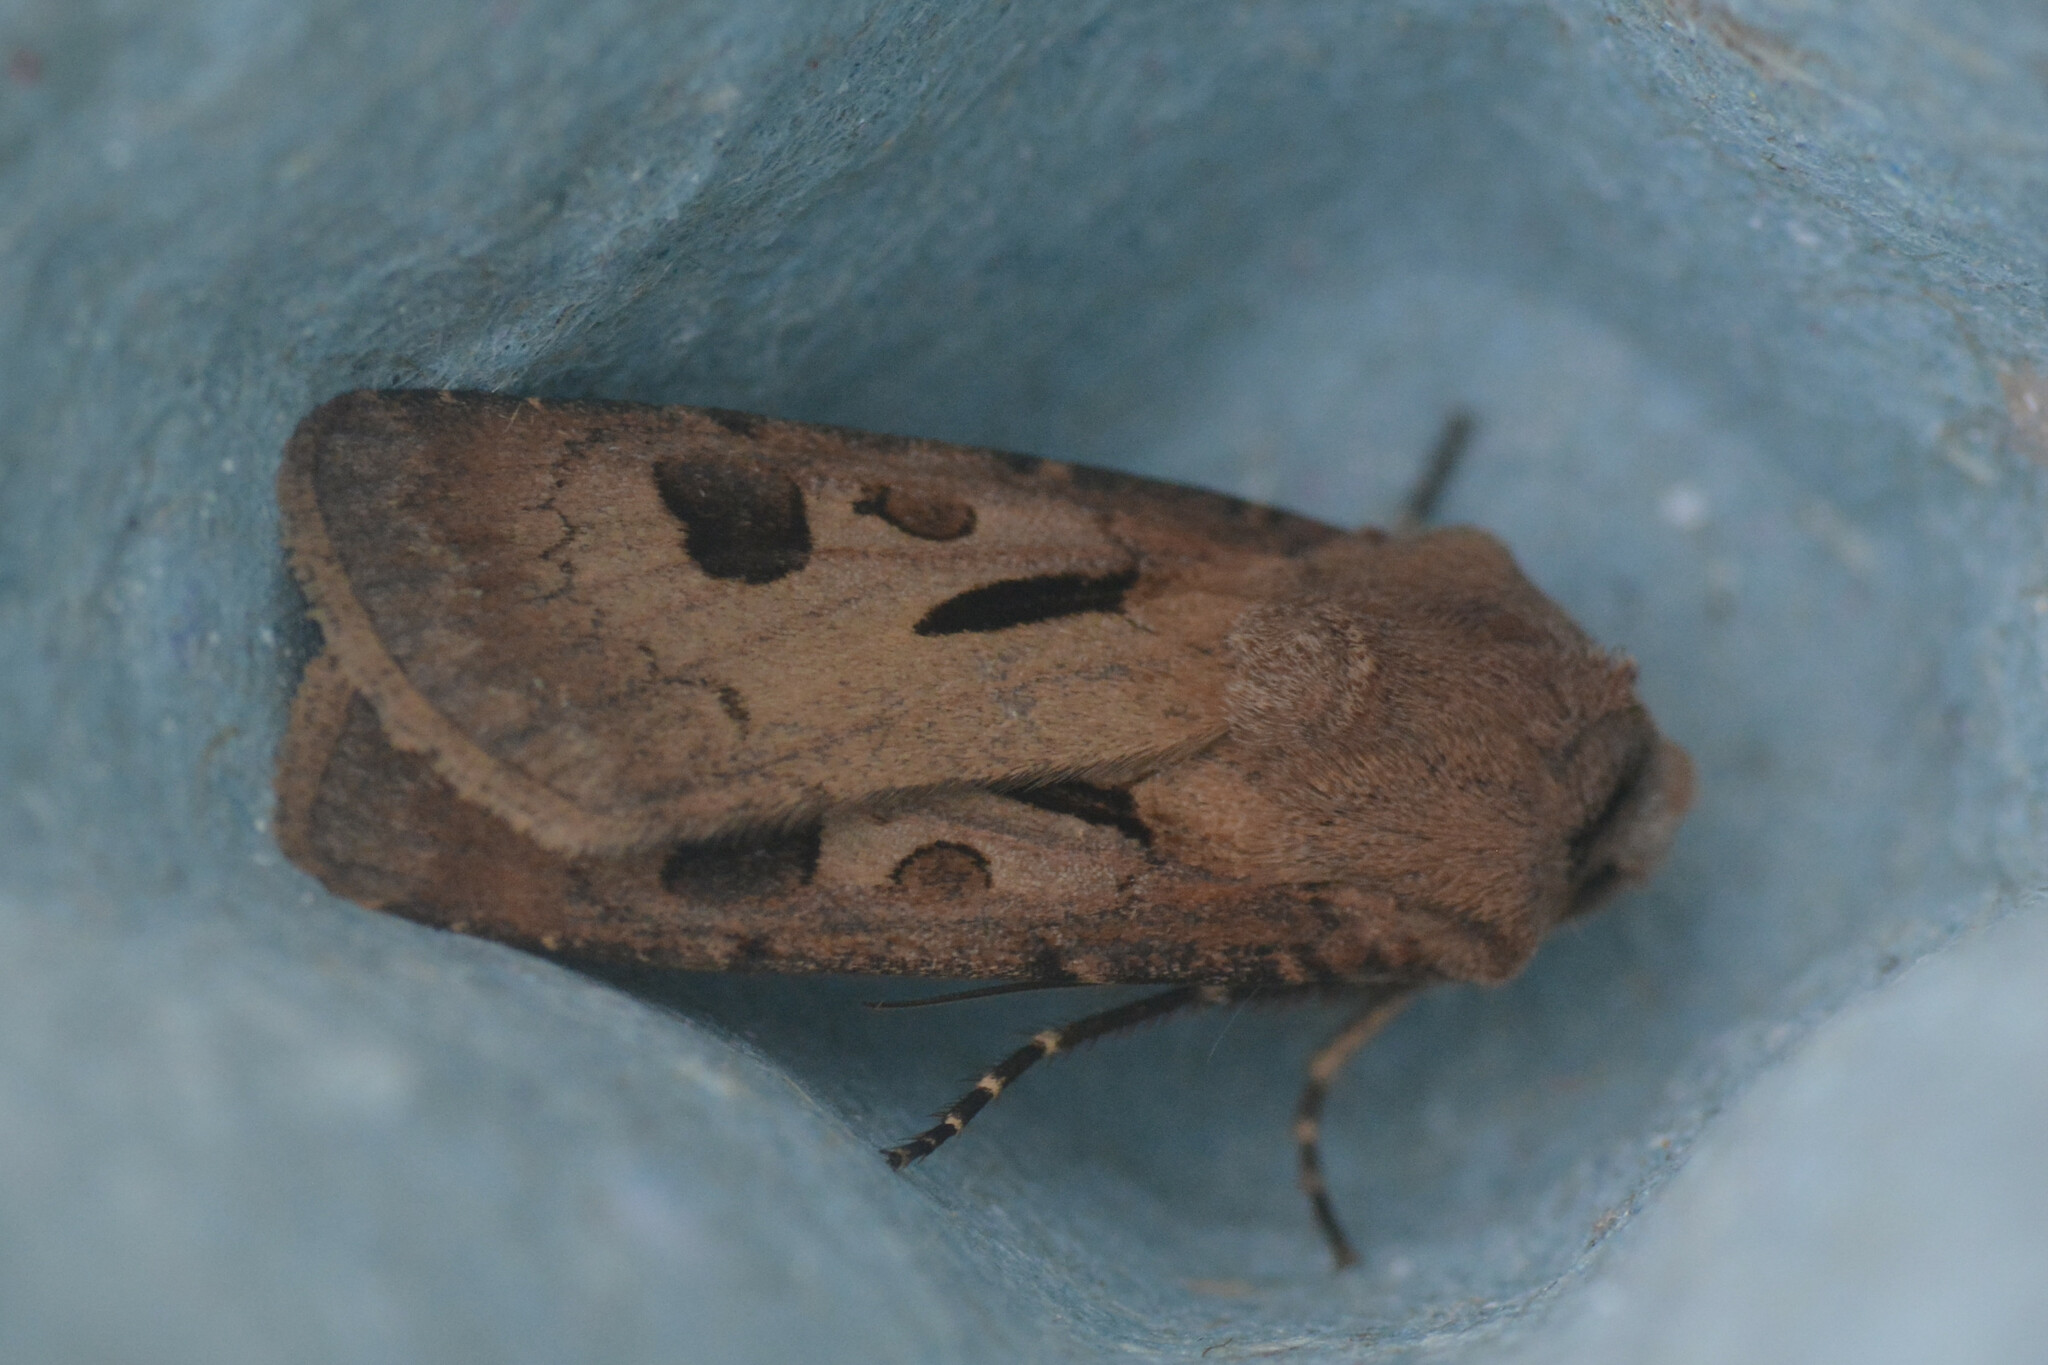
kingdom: Animalia
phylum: Arthropoda
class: Insecta
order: Lepidoptera
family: Noctuidae
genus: Agrotis
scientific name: Agrotis exclamationis
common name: Heart and dart
